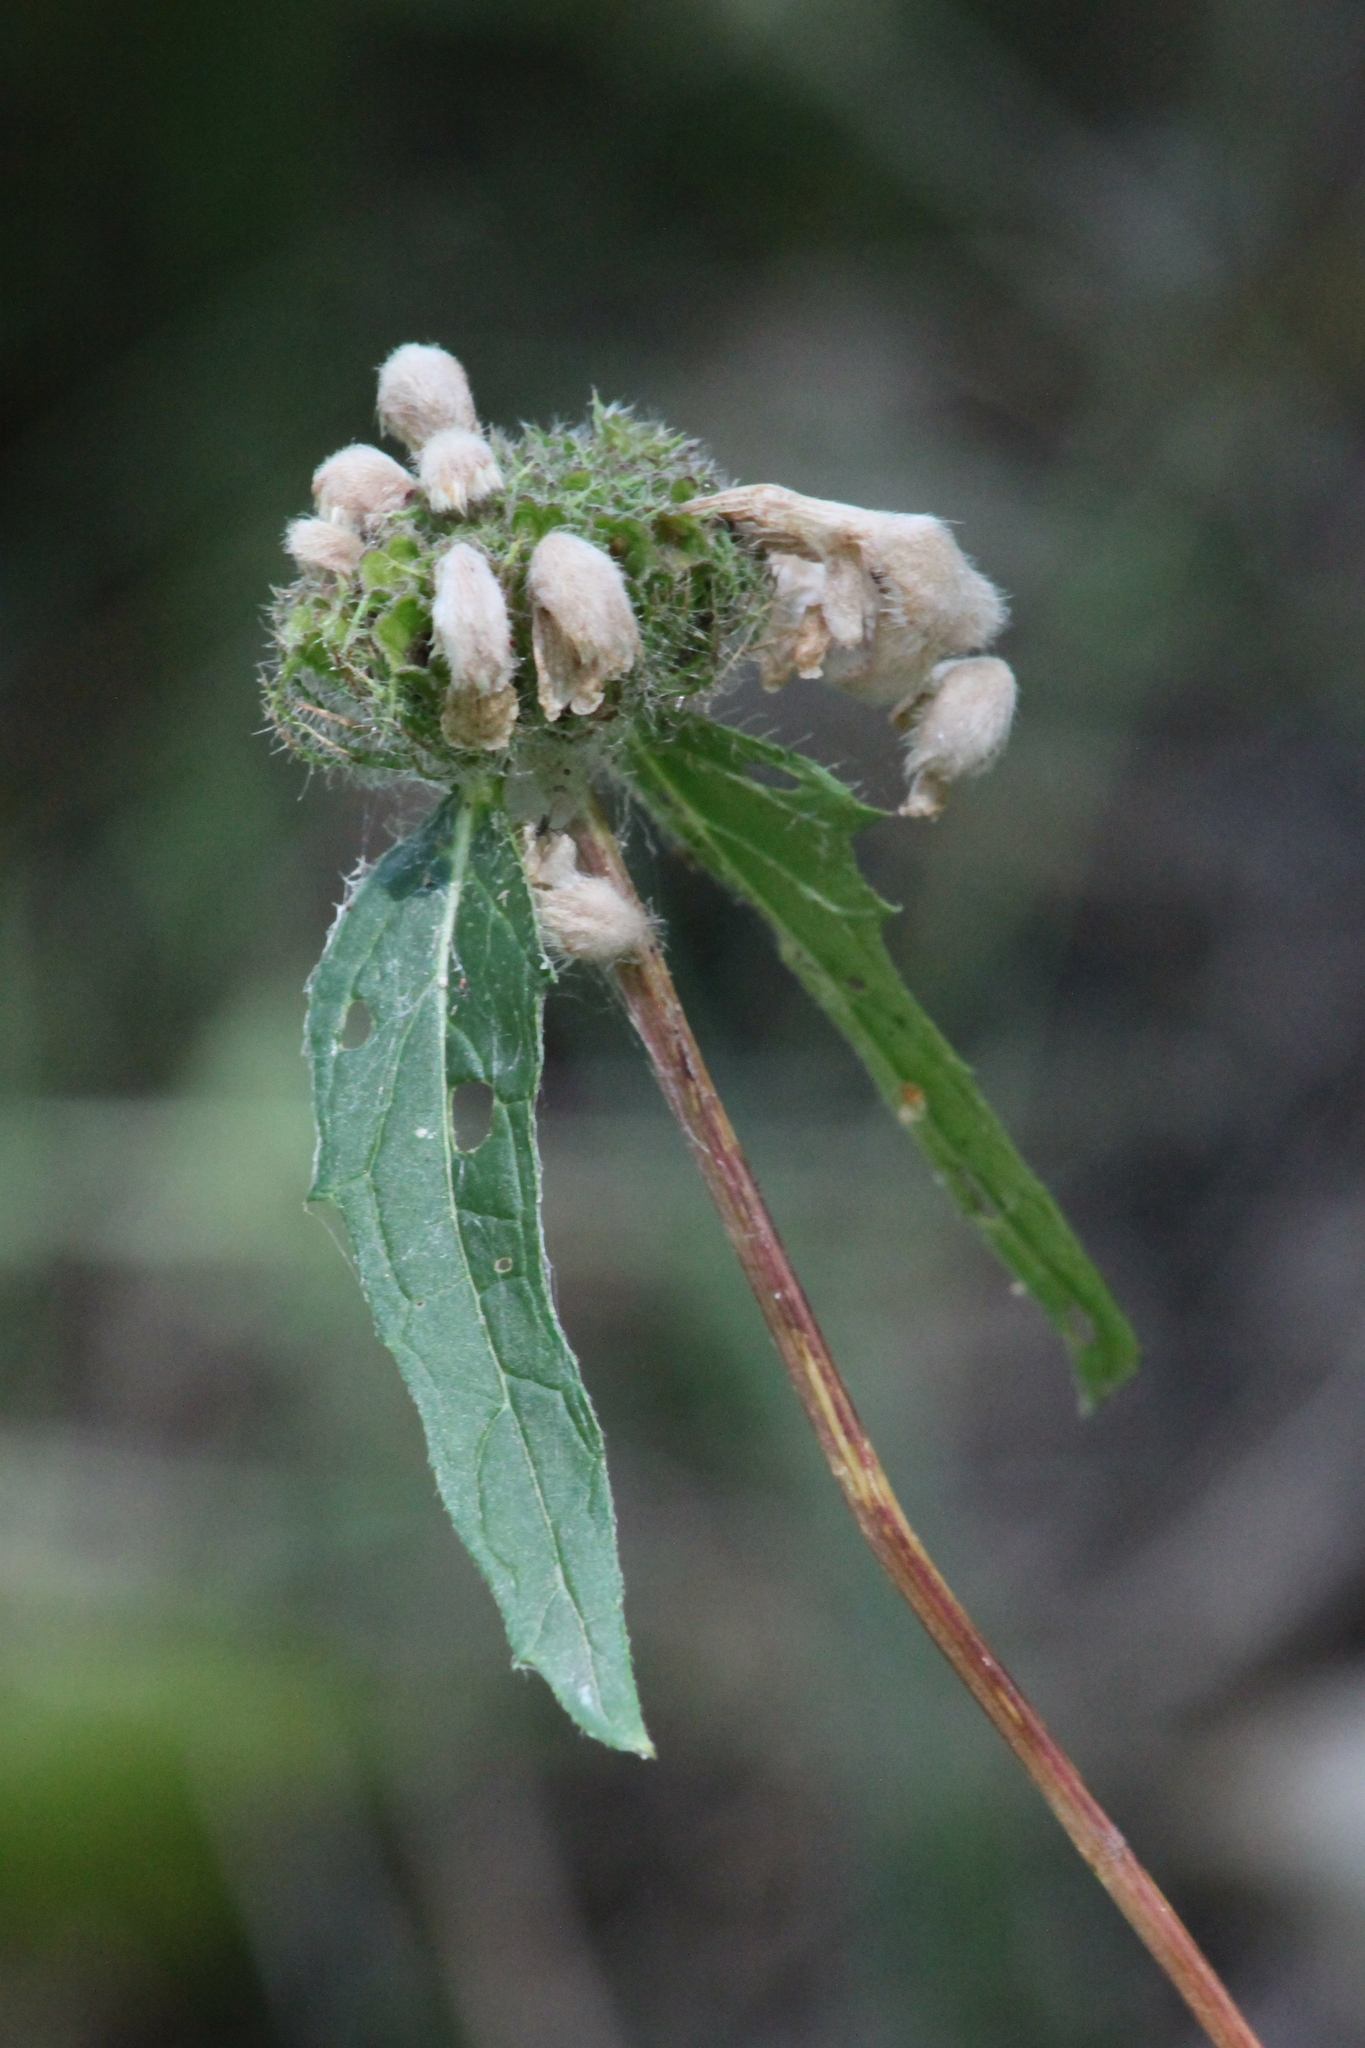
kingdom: Plantae
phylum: Tracheophyta
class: Magnoliopsida
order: Lamiales
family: Lamiaceae
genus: Phlomoides
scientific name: Phlomoides tuberosa
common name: Tuberous jerusalem sage
